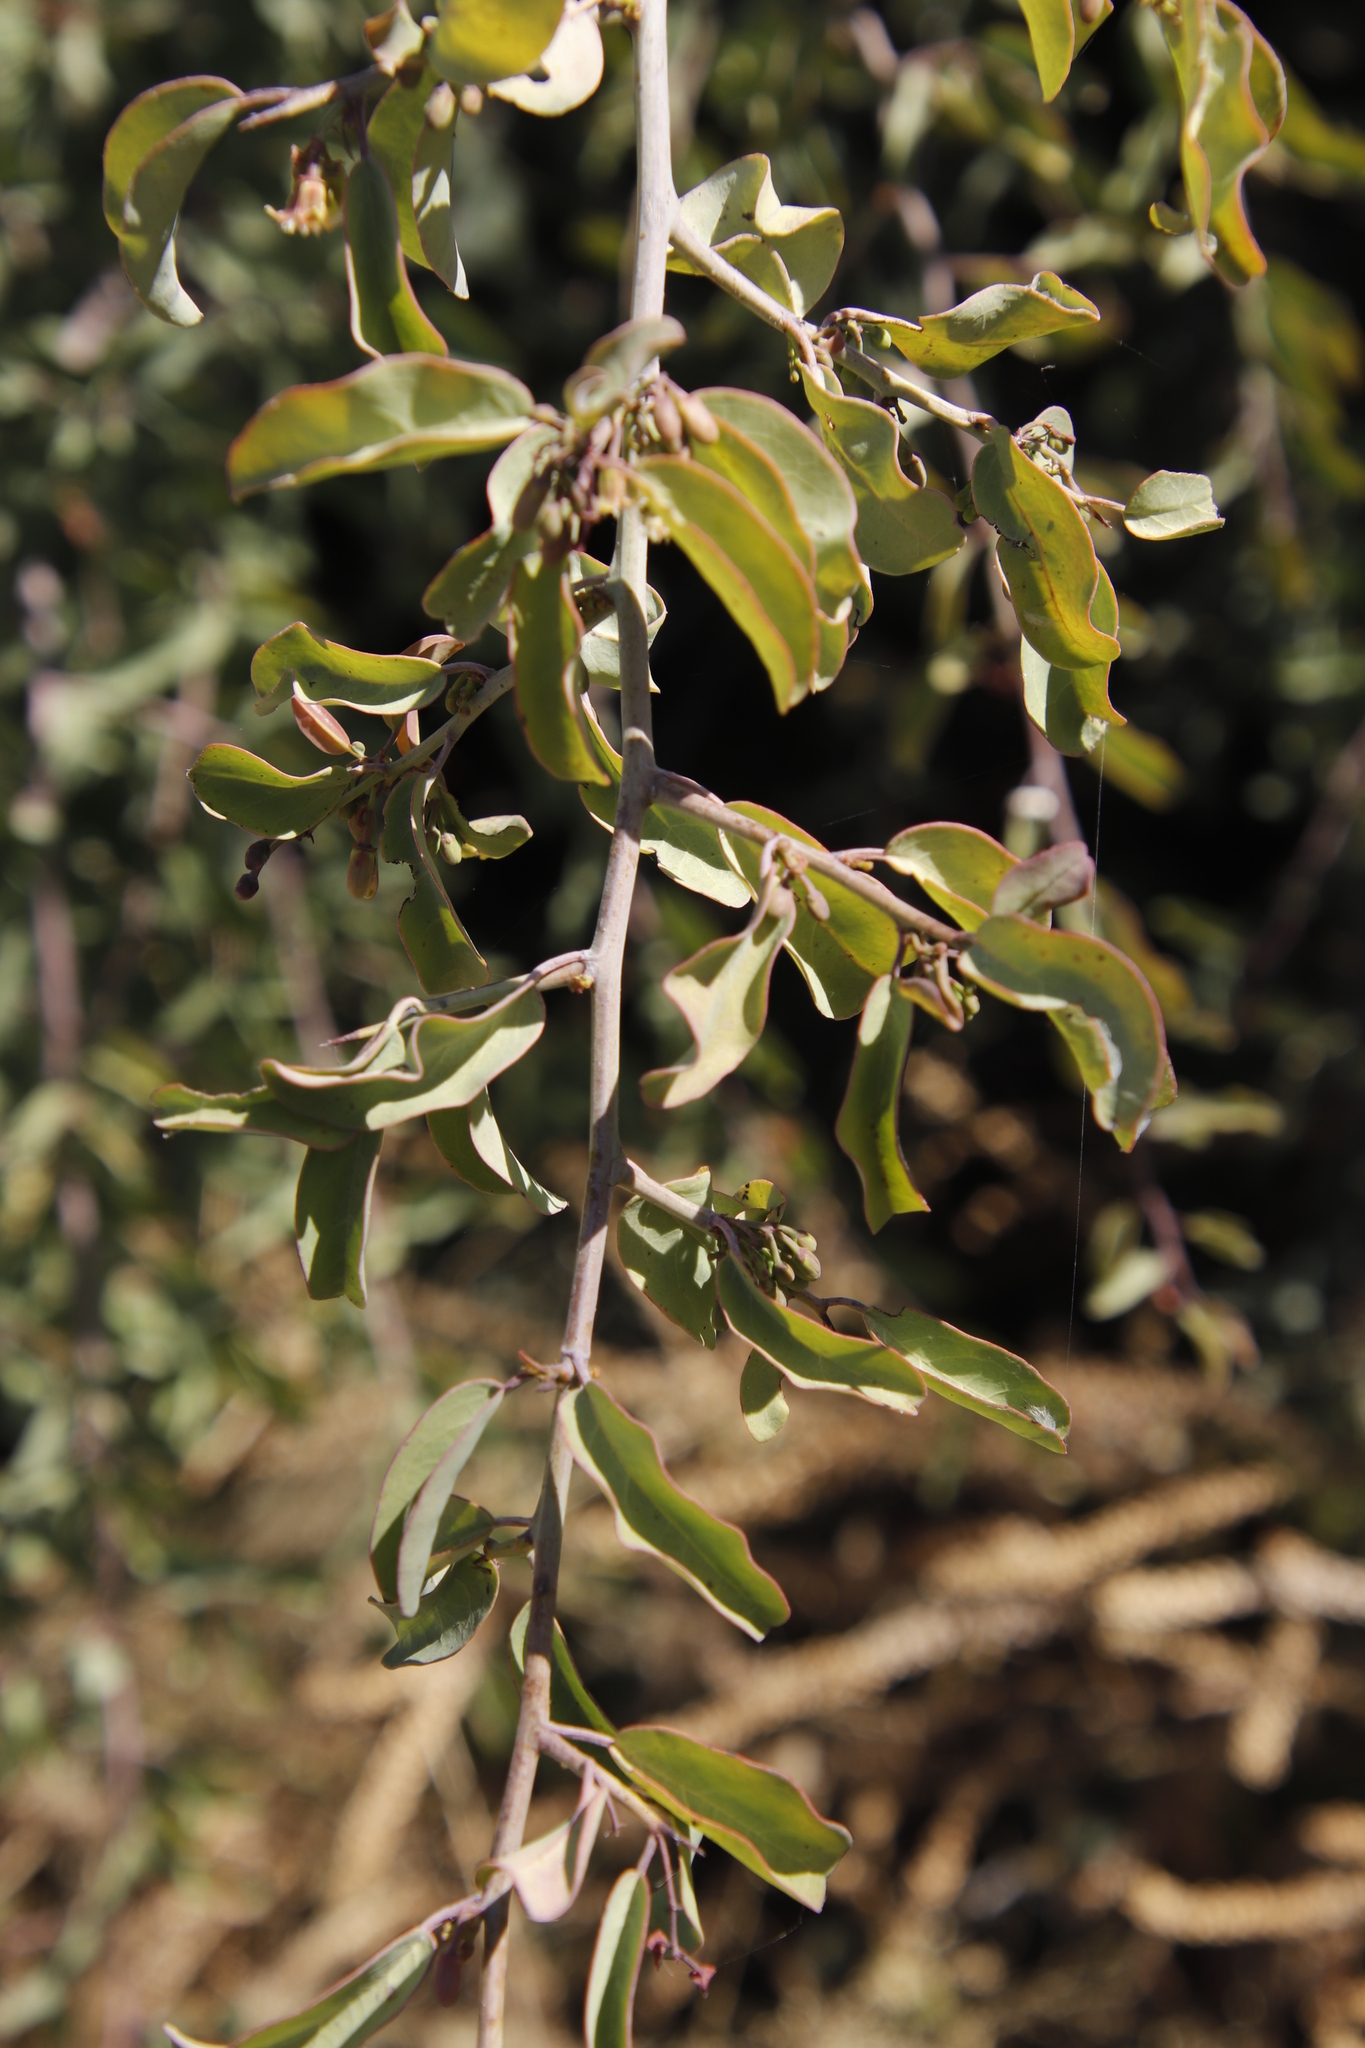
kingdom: Plantae
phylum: Tracheophyta
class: Magnoliopsida
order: Santalales
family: Ximeniaceae
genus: Ximenia
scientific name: Ximenia americana
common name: Tallowwood
